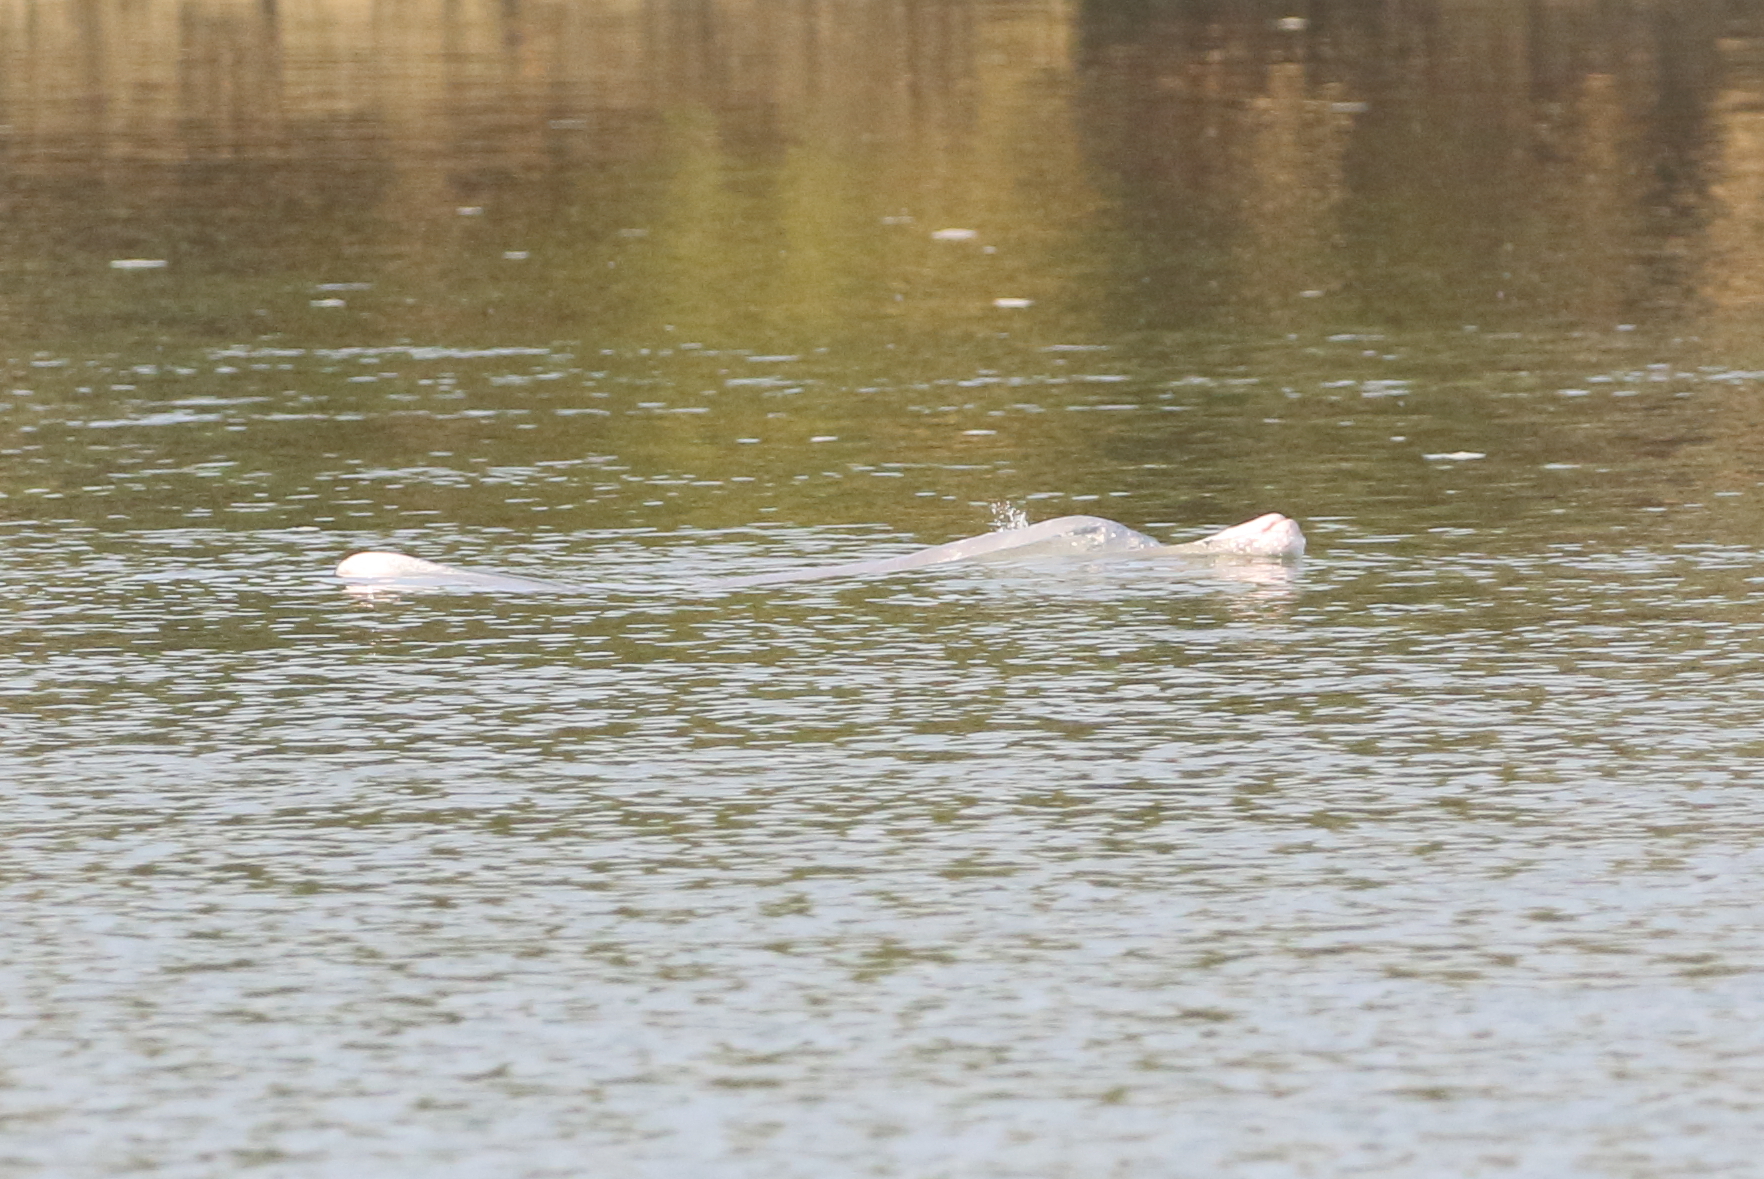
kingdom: Animalia
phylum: Chordata
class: Mammalia
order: Cetacea
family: Delphinidae
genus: Sousa
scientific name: Sousa sahulensis
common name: Australian humpback dolphin
